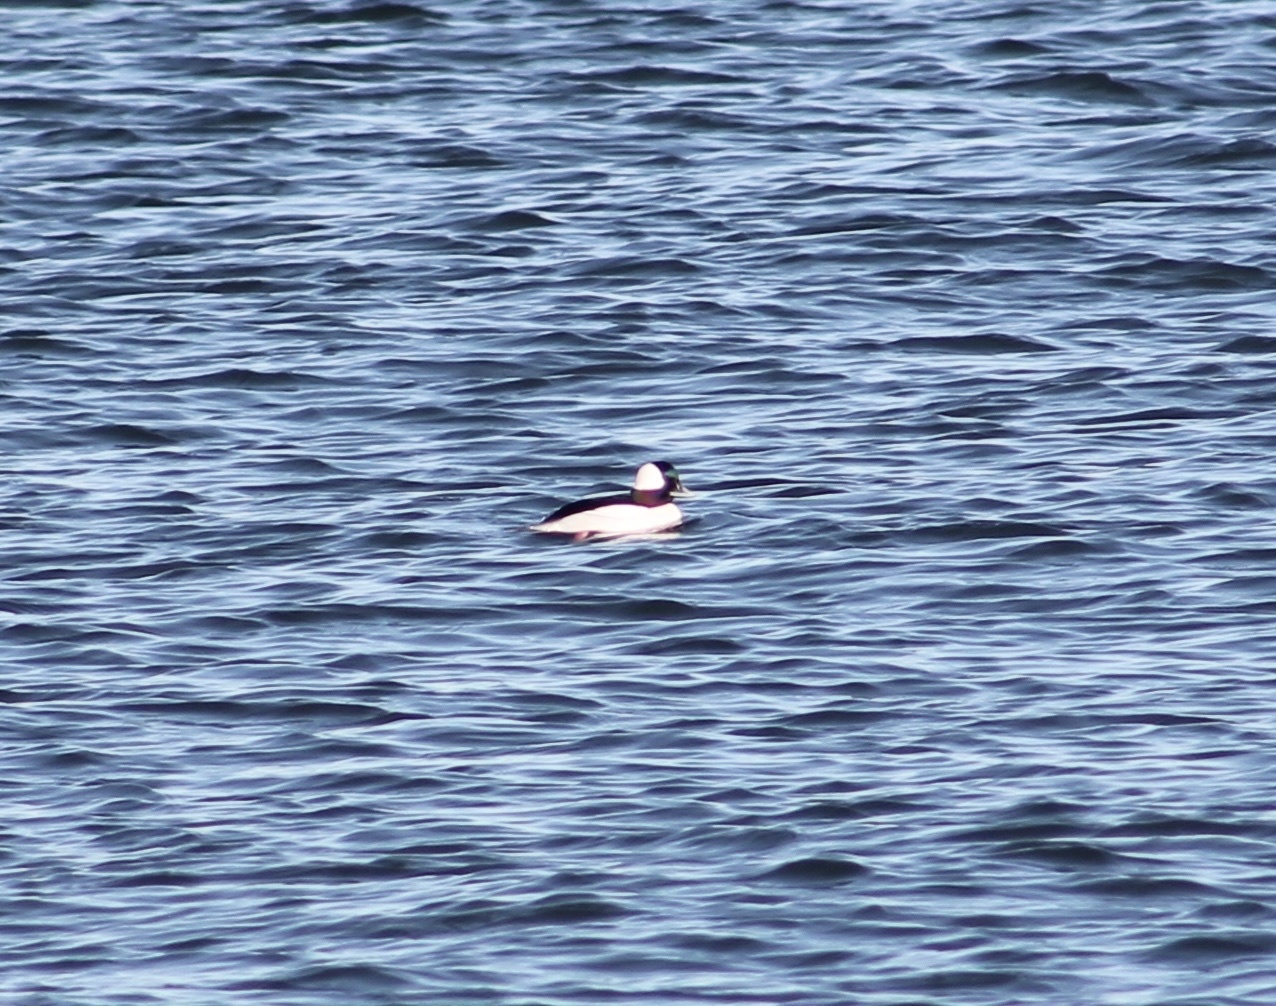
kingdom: Animalia
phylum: Chordata
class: Aves
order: Anseriformes
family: Anatidae
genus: Bucephala
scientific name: Bucephala albeola
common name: Bufflehead
